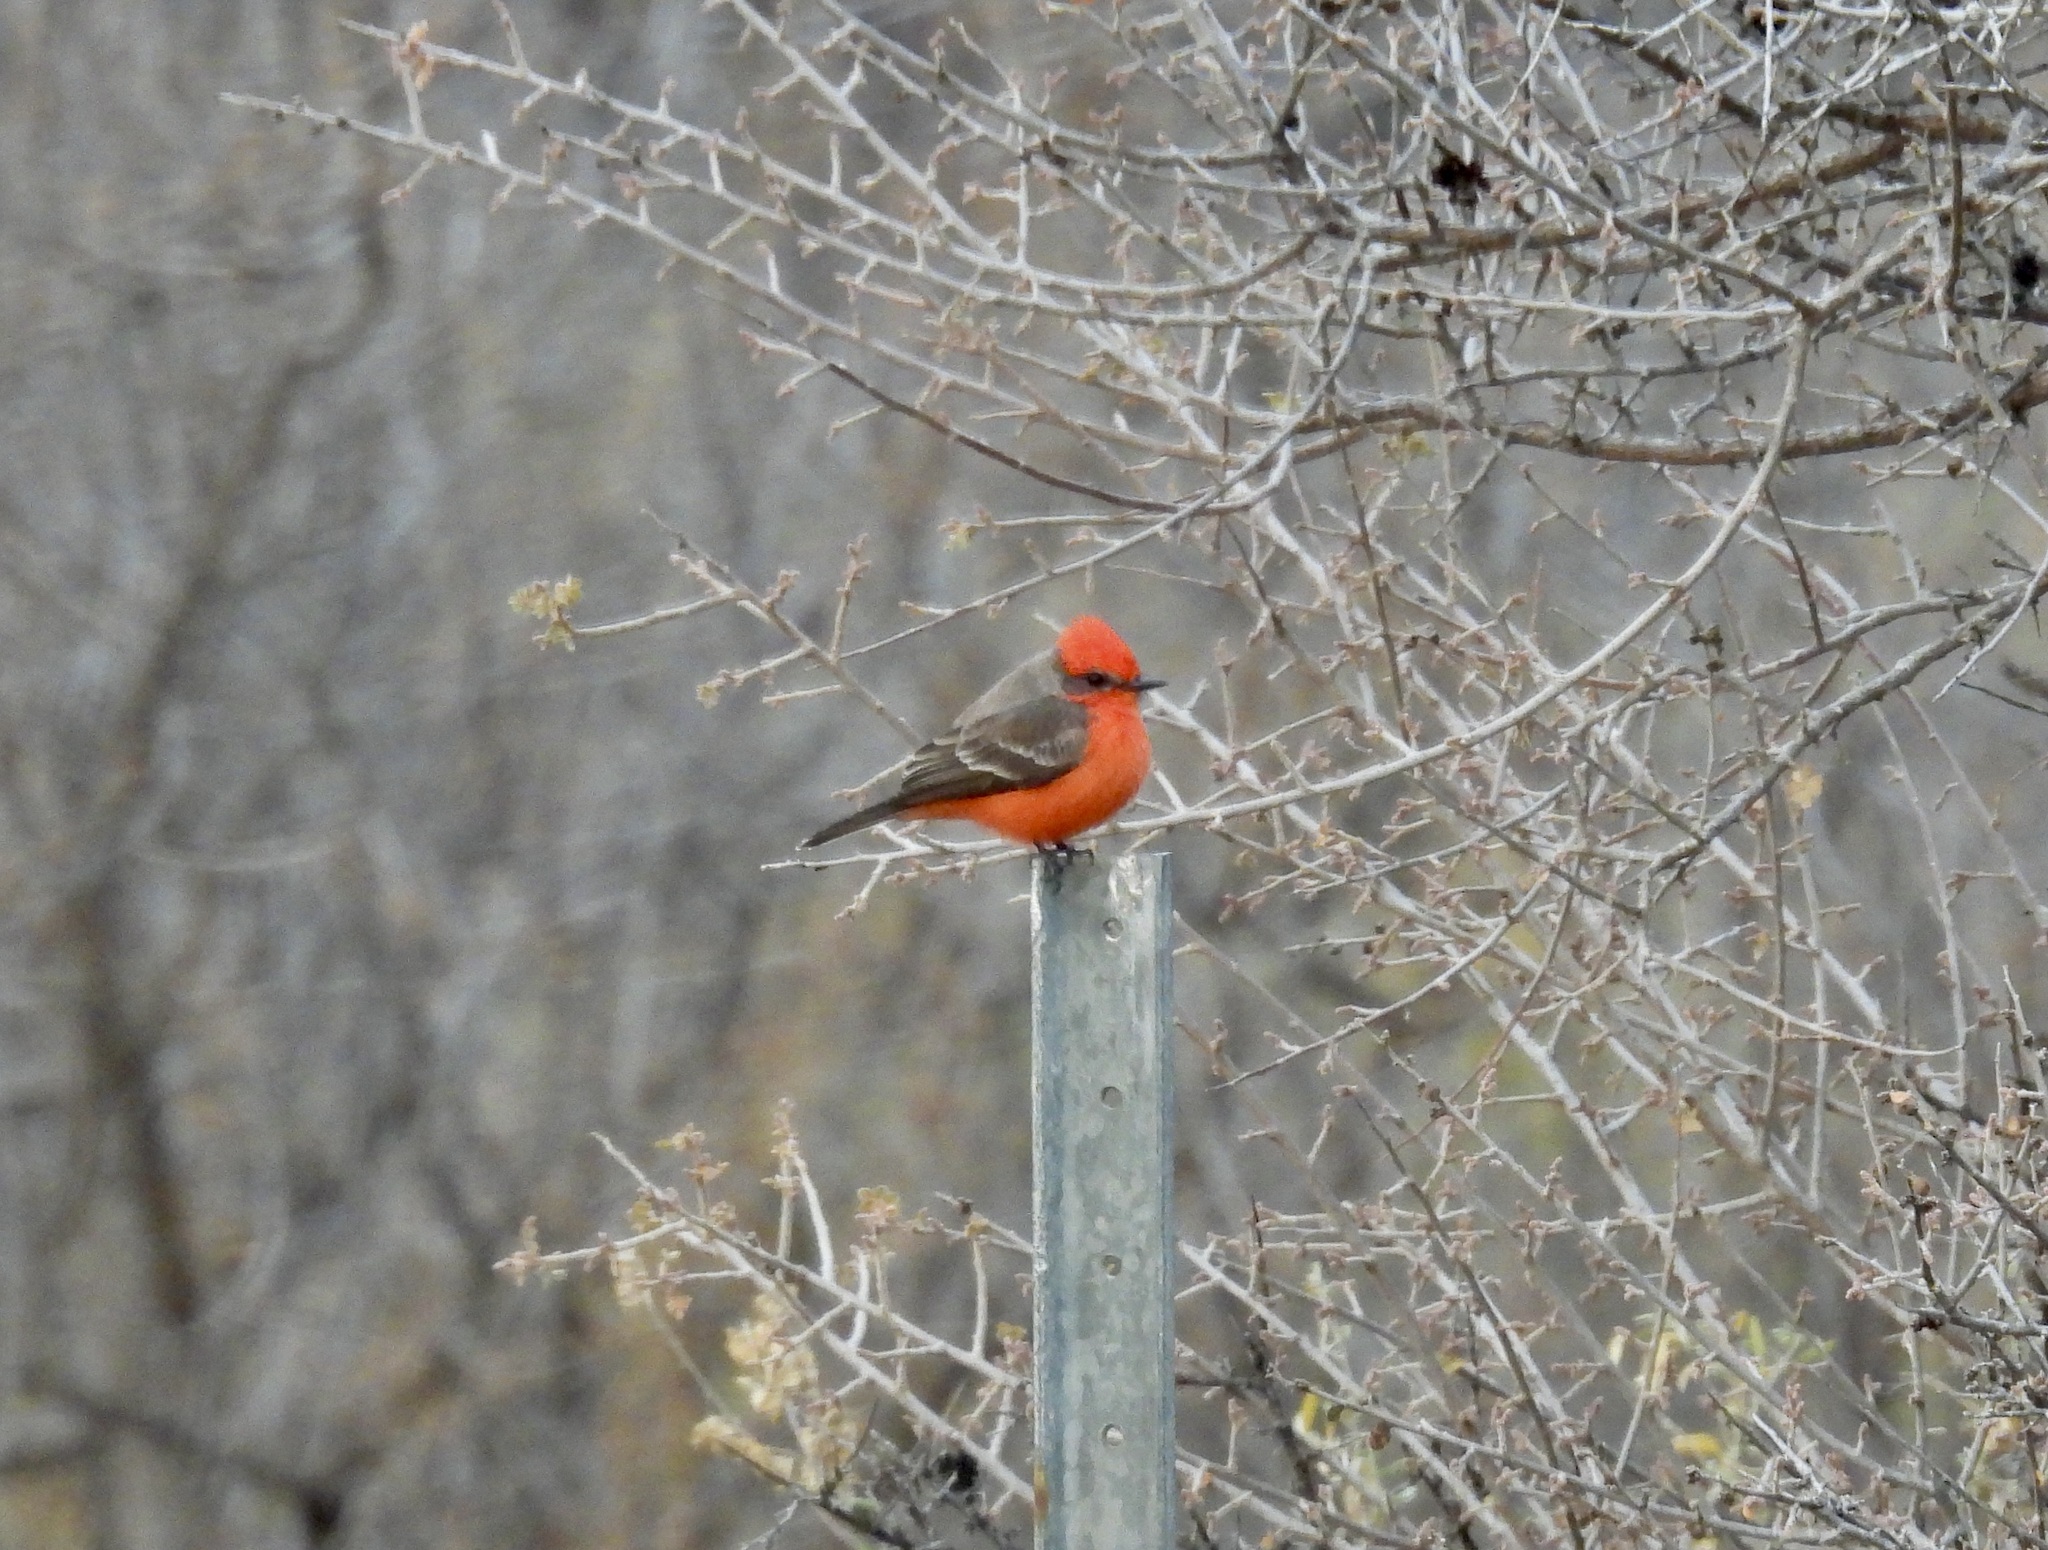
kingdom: Animalia
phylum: Chordata
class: Aves
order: Passeriformes
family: Tyrannidae
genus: Pyrocephalus
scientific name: Pyrocephalus rubinus
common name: Vermilion flycatcher
